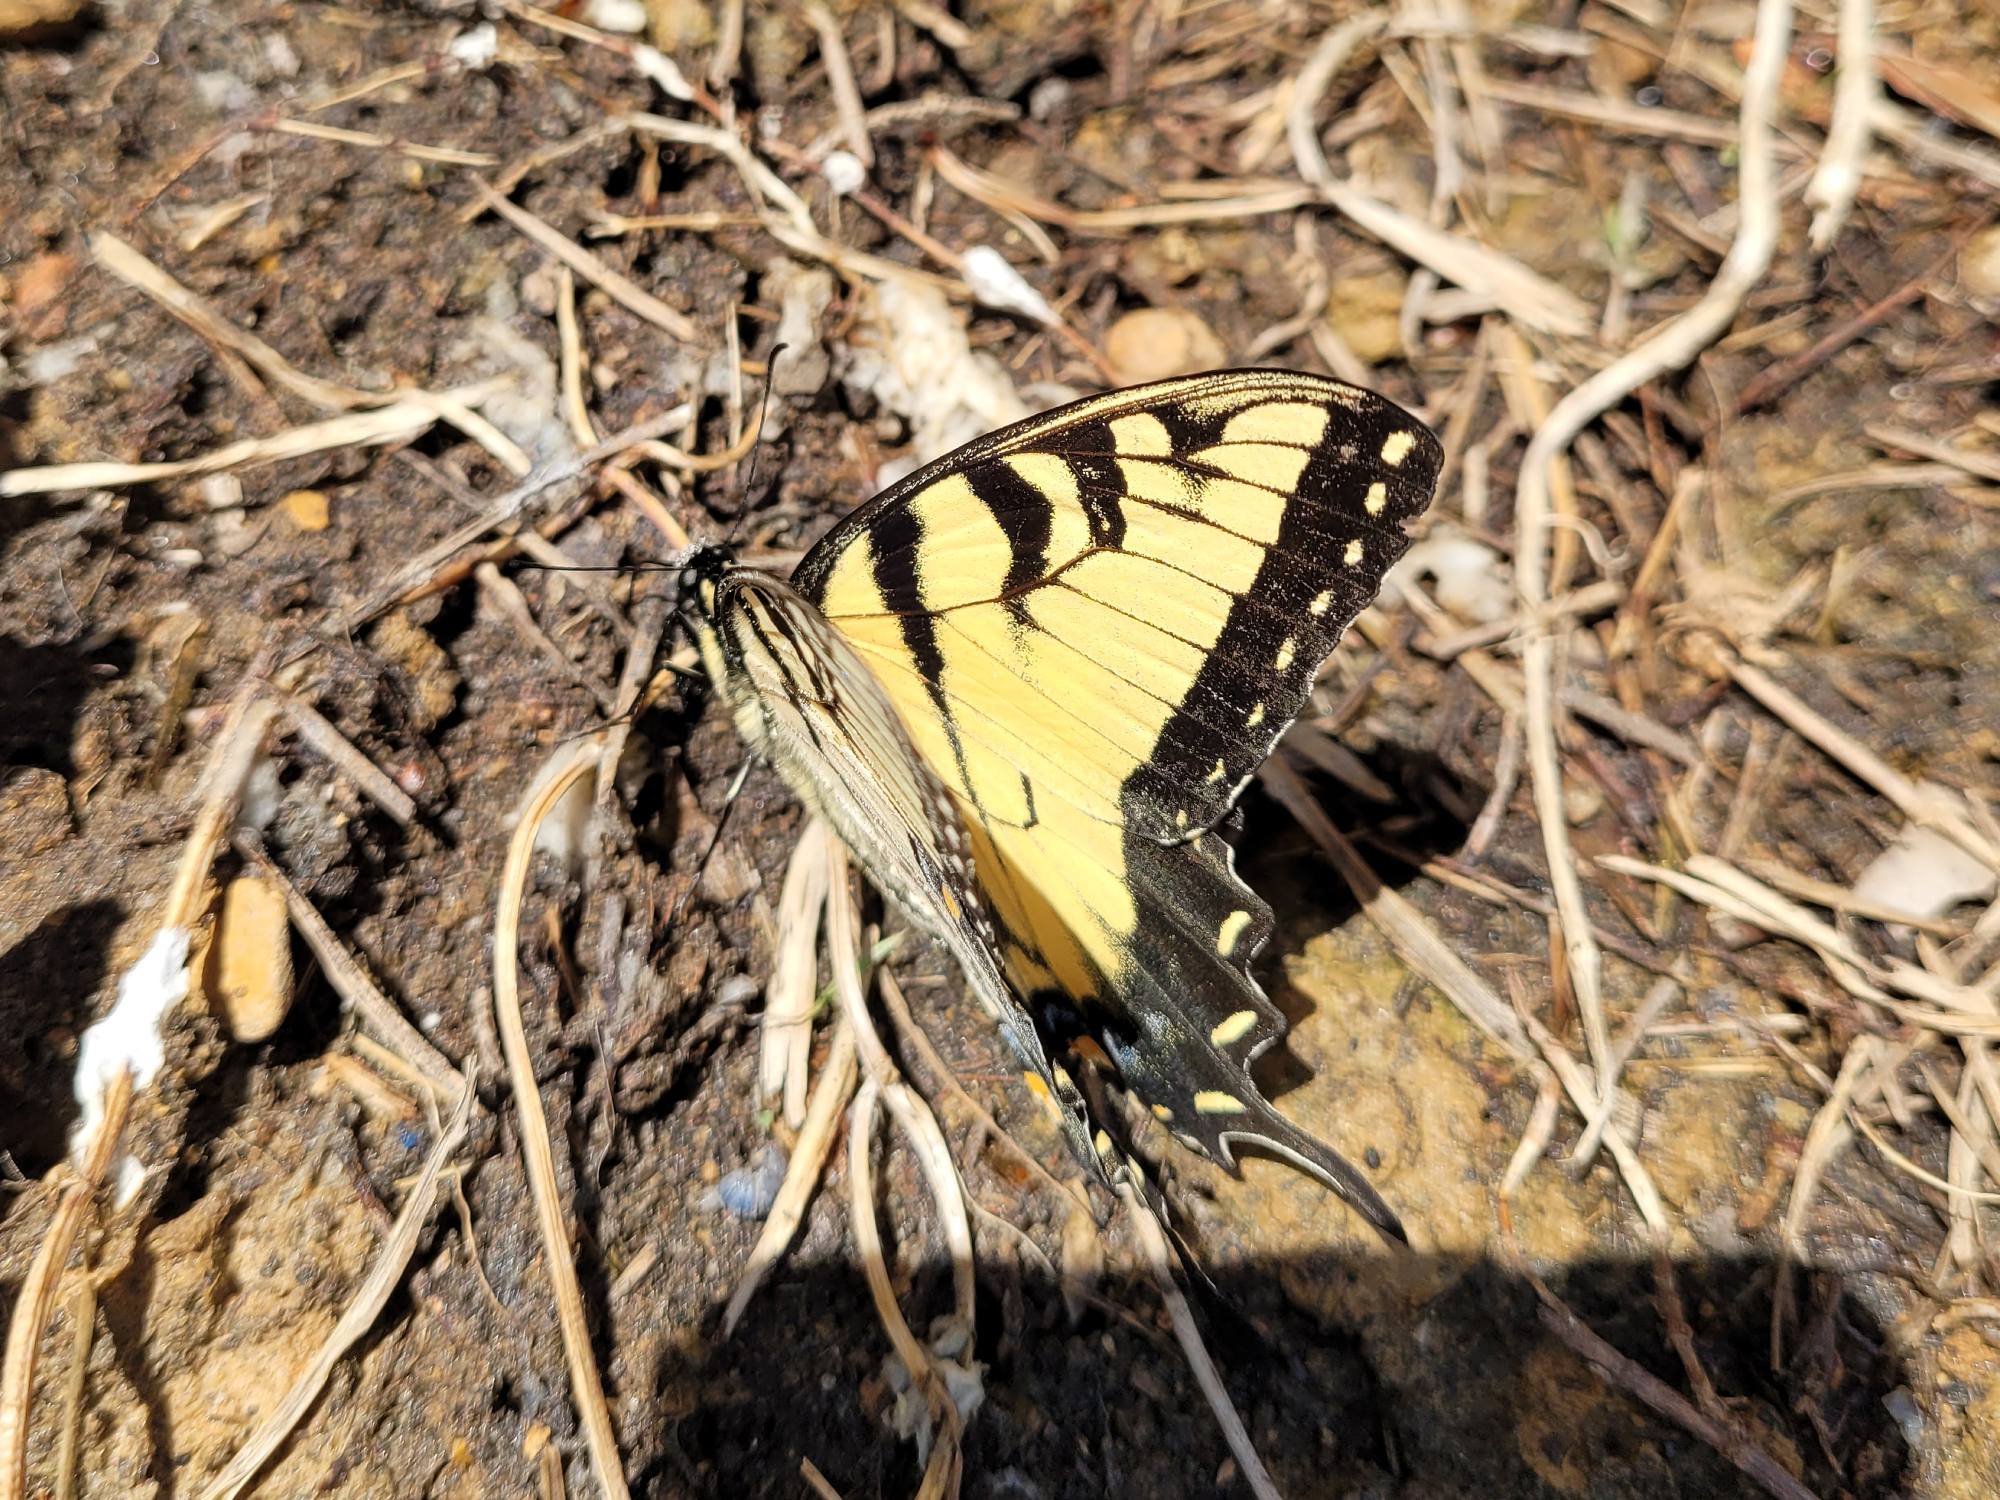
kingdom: Animalia
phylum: Arthropoda
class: Insecta
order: Lepidoptera
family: Papilionidae
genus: Papilio
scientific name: Papilio glaucus
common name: Tiger swallowtail
